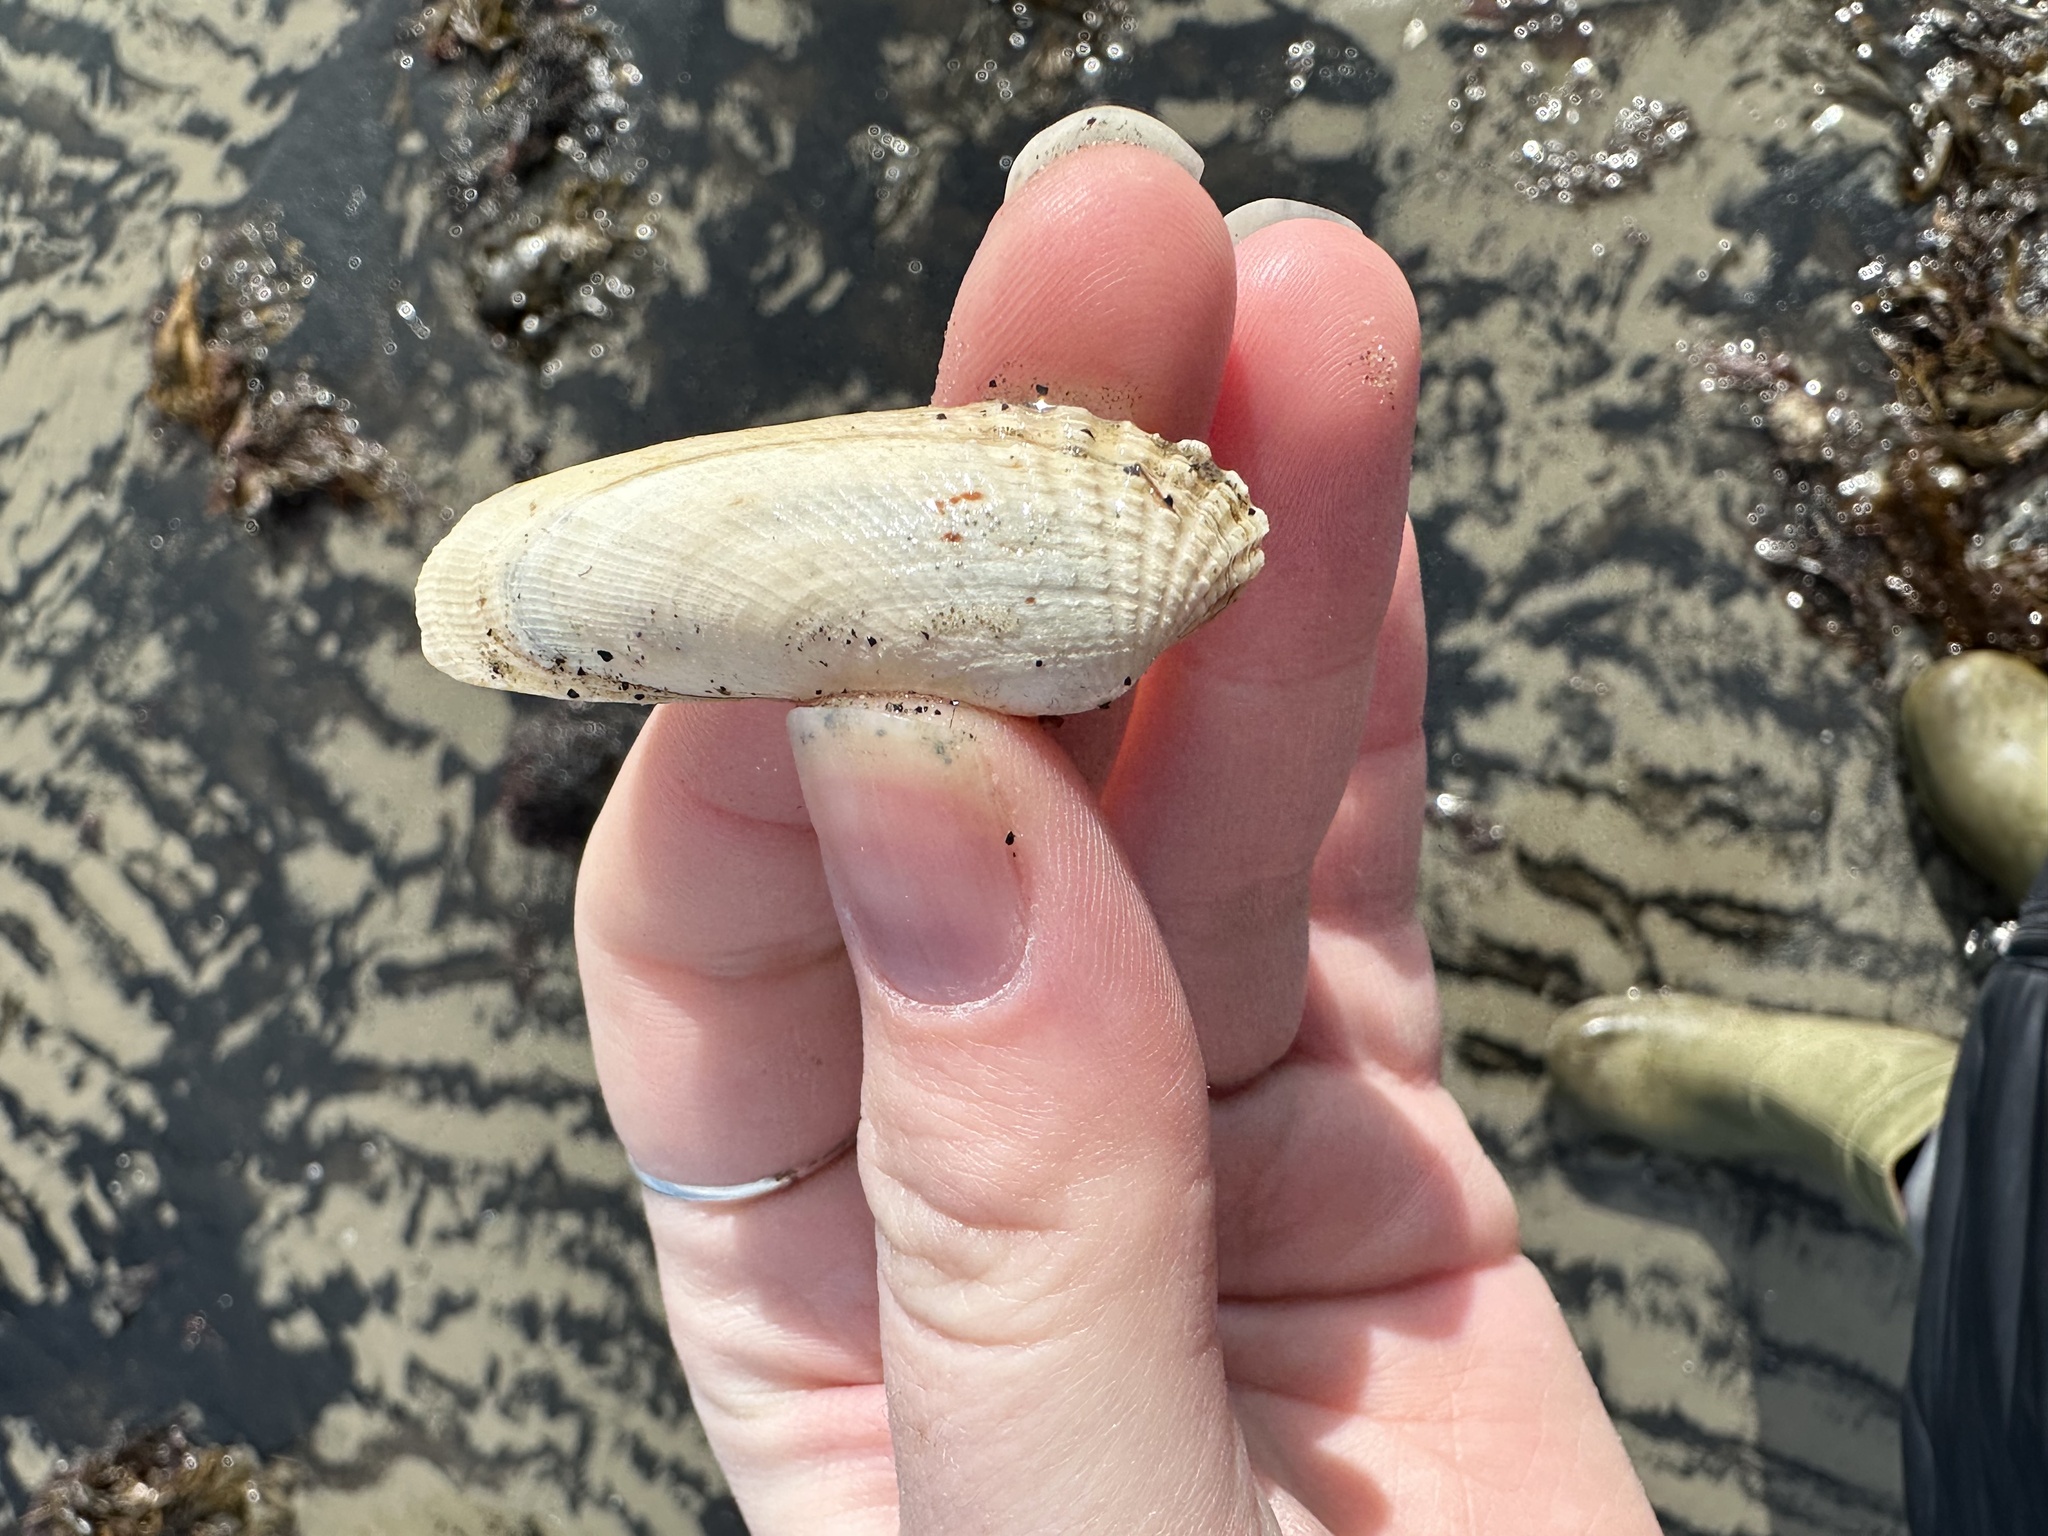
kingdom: Animalia
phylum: Mollusca
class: Bivalvia
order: Venerida
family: Veneridae
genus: Petricolaria
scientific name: Petricolaria pholadiformis
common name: American piddock
